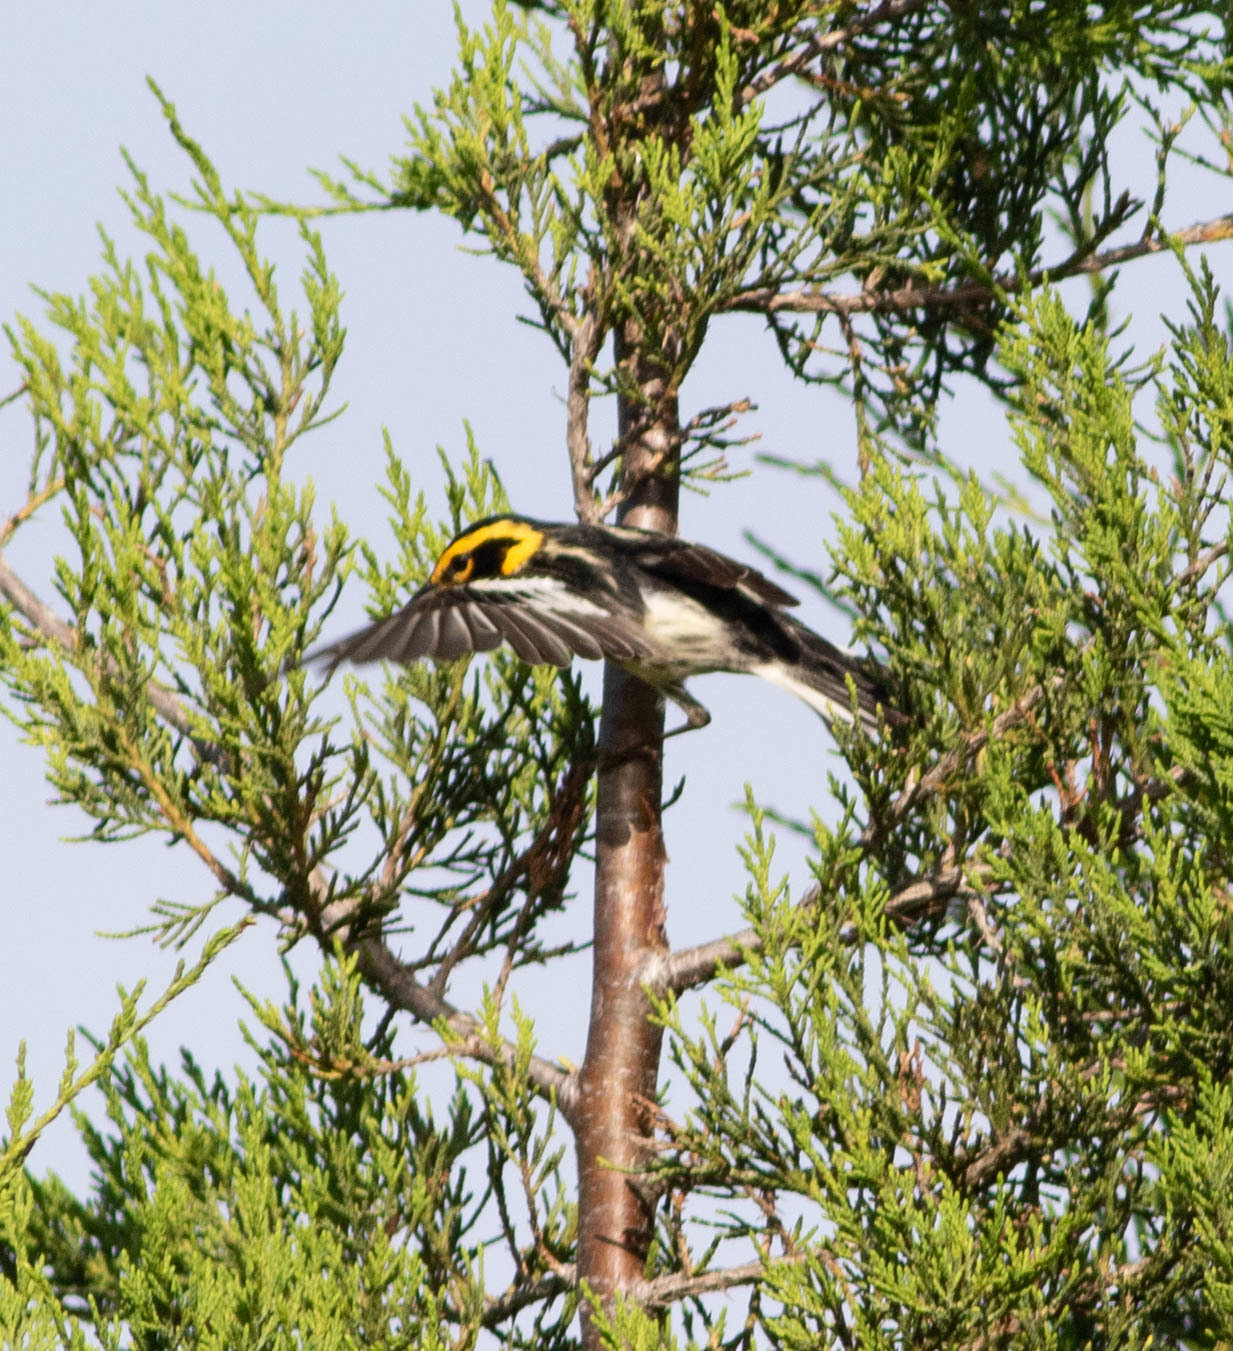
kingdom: Animalia
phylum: Chordata
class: Aves
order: Passeriformes
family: Parulidae
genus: Setophaga
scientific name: Setophaga fusca
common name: Blackburnian warbler
